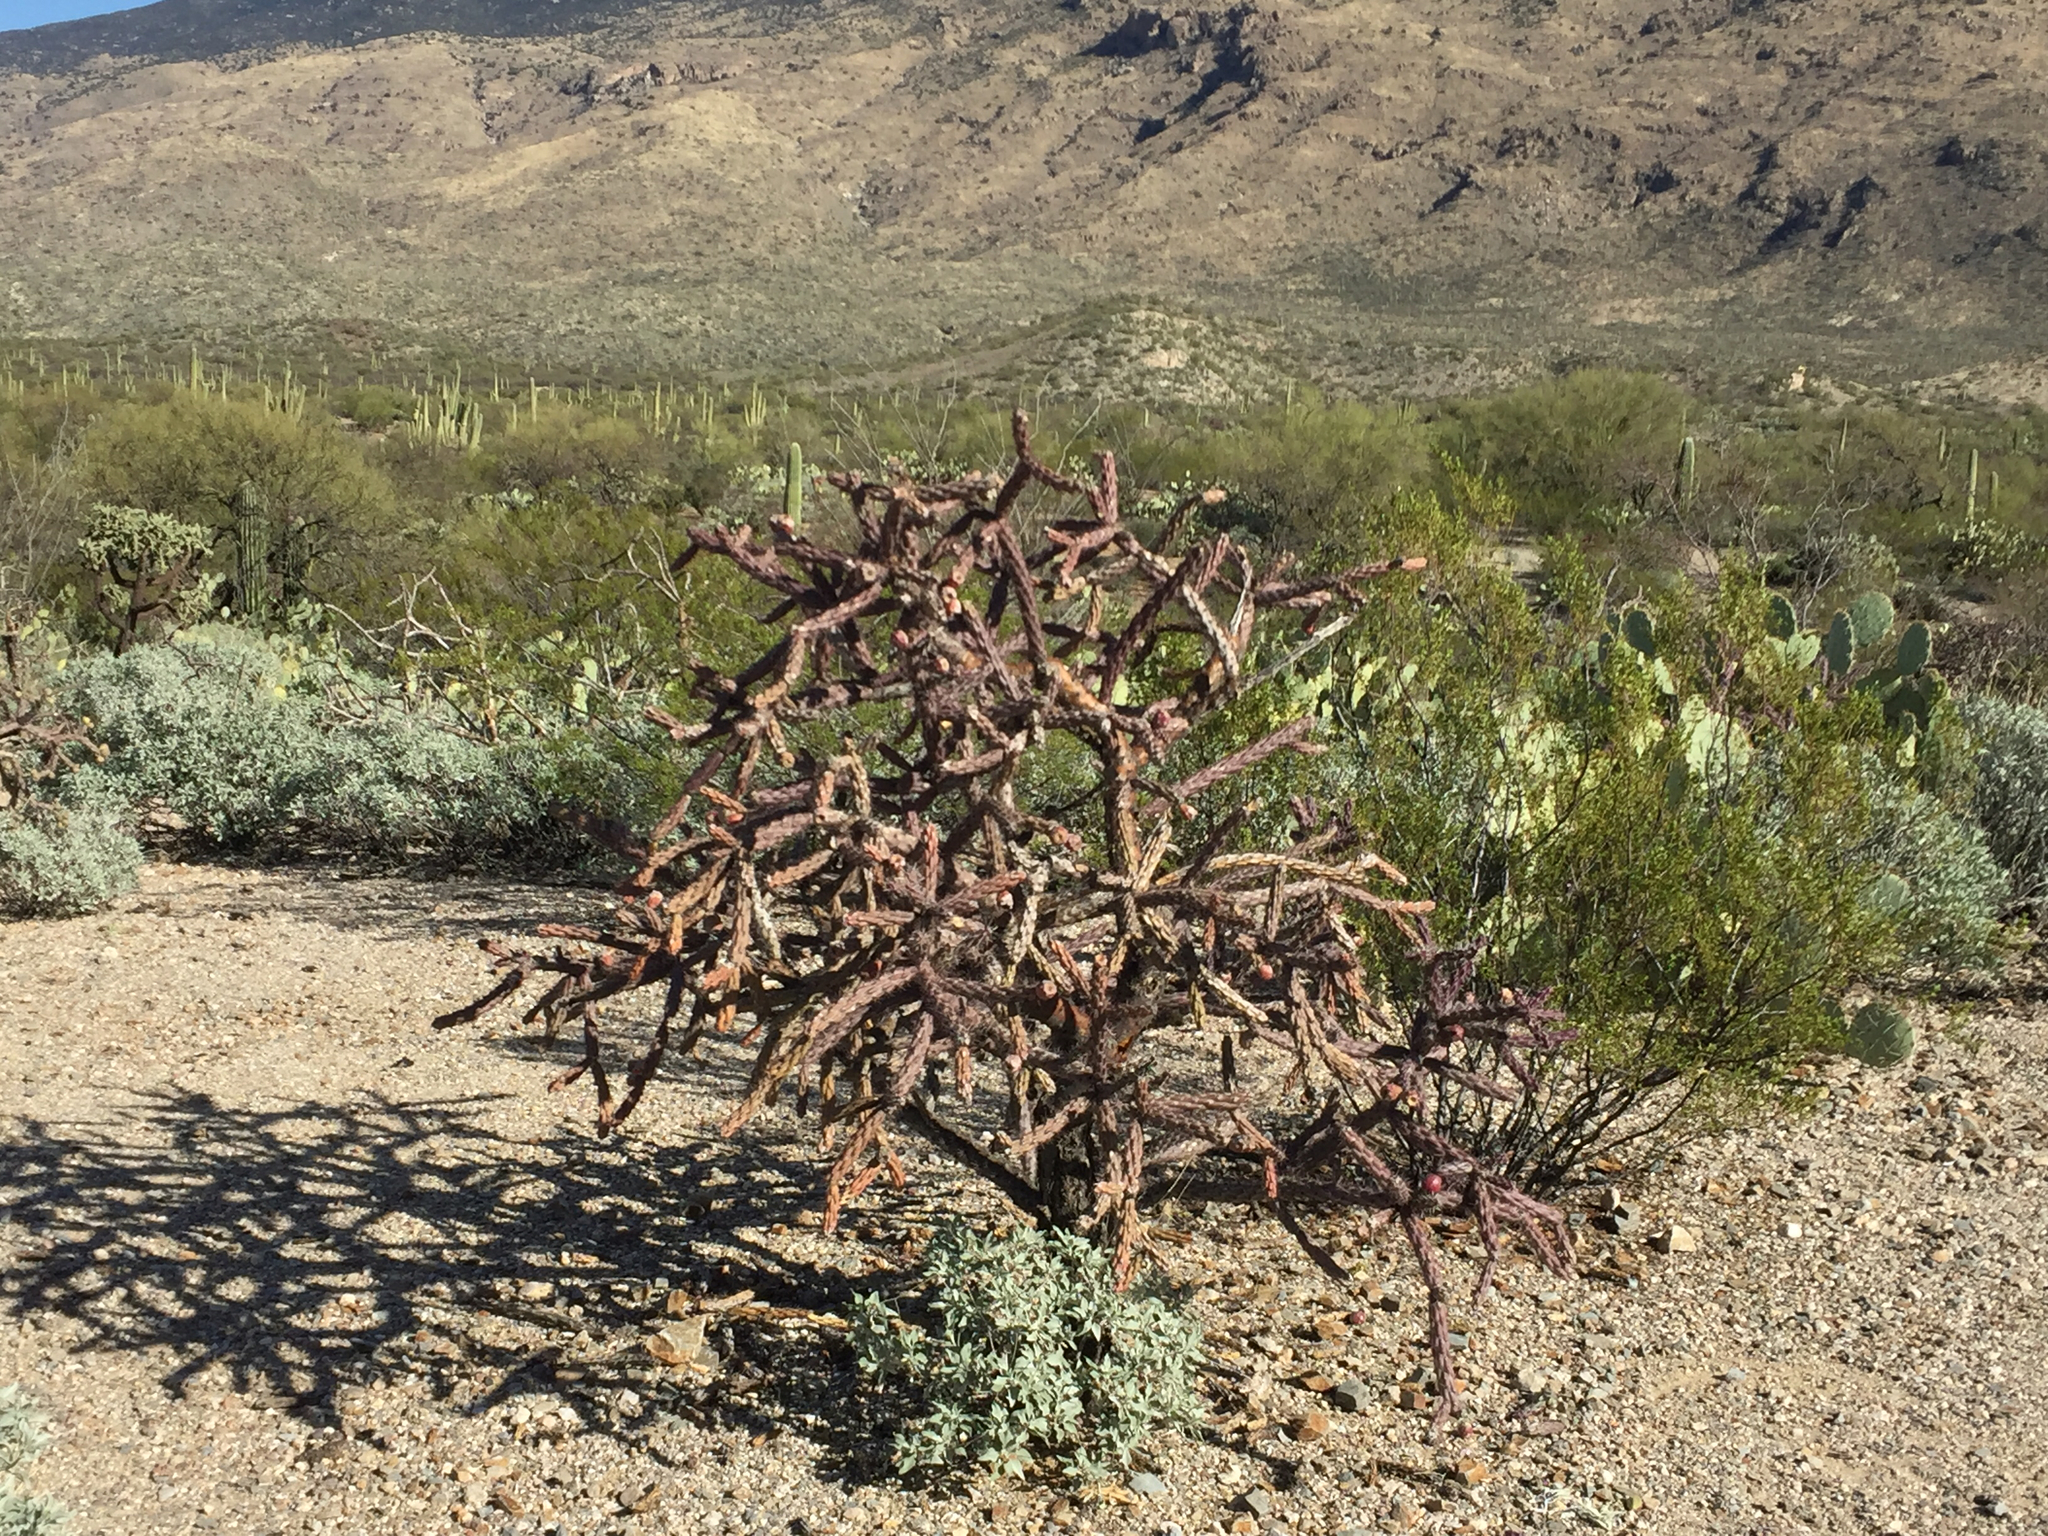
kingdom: Plantae
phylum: Tracheophyta
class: Magnoliopsida
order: Caryophyllales
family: Cactaceae
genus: Cylindropuntia
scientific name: Cylindropuntia thurberi
